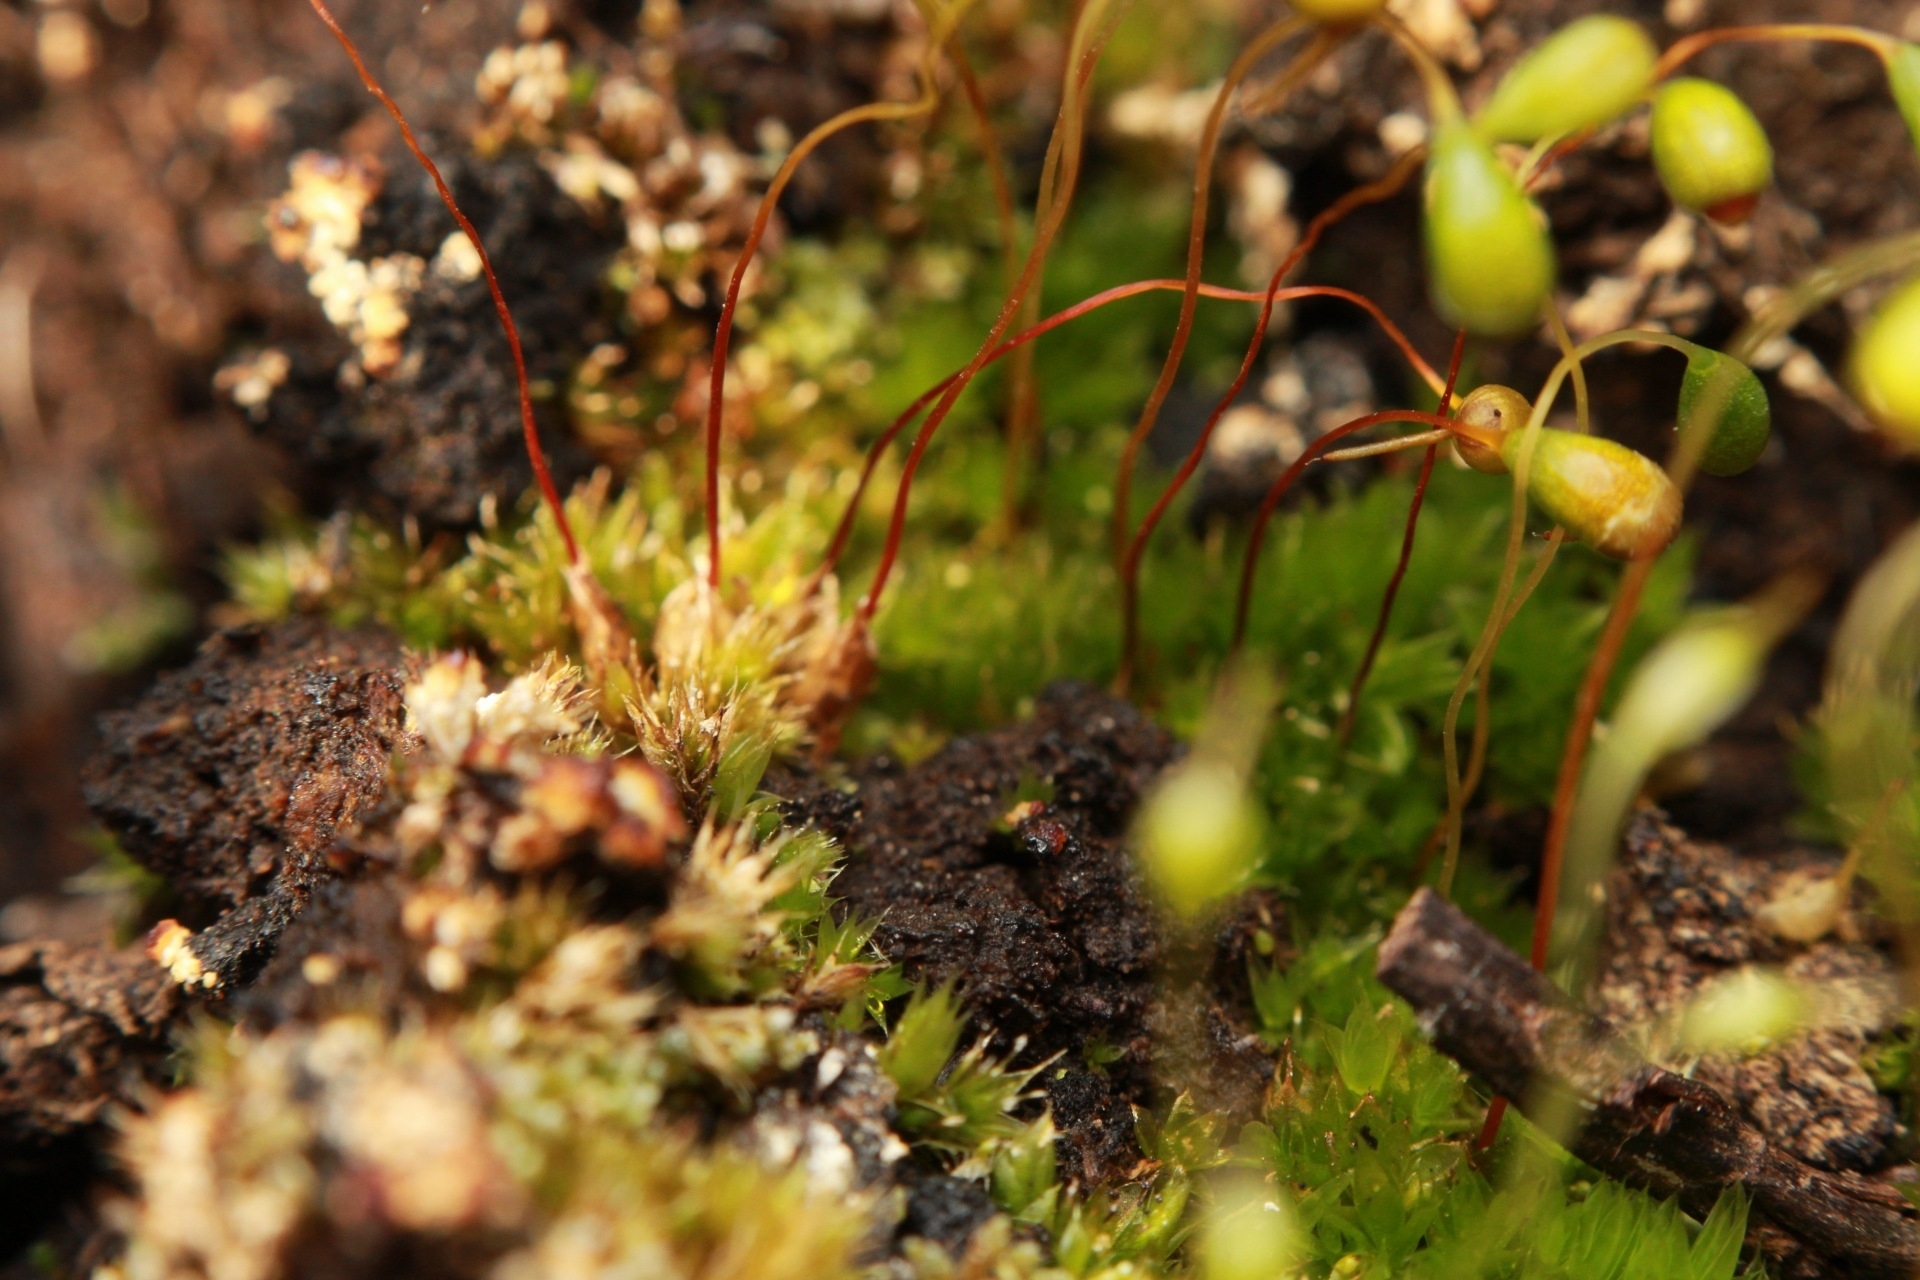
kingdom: Plantae
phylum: Bryophyta
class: Bryopsida
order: Funariales
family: Funariaceae
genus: Funaria
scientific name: Funaria hygrometrica
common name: Common cord moss
